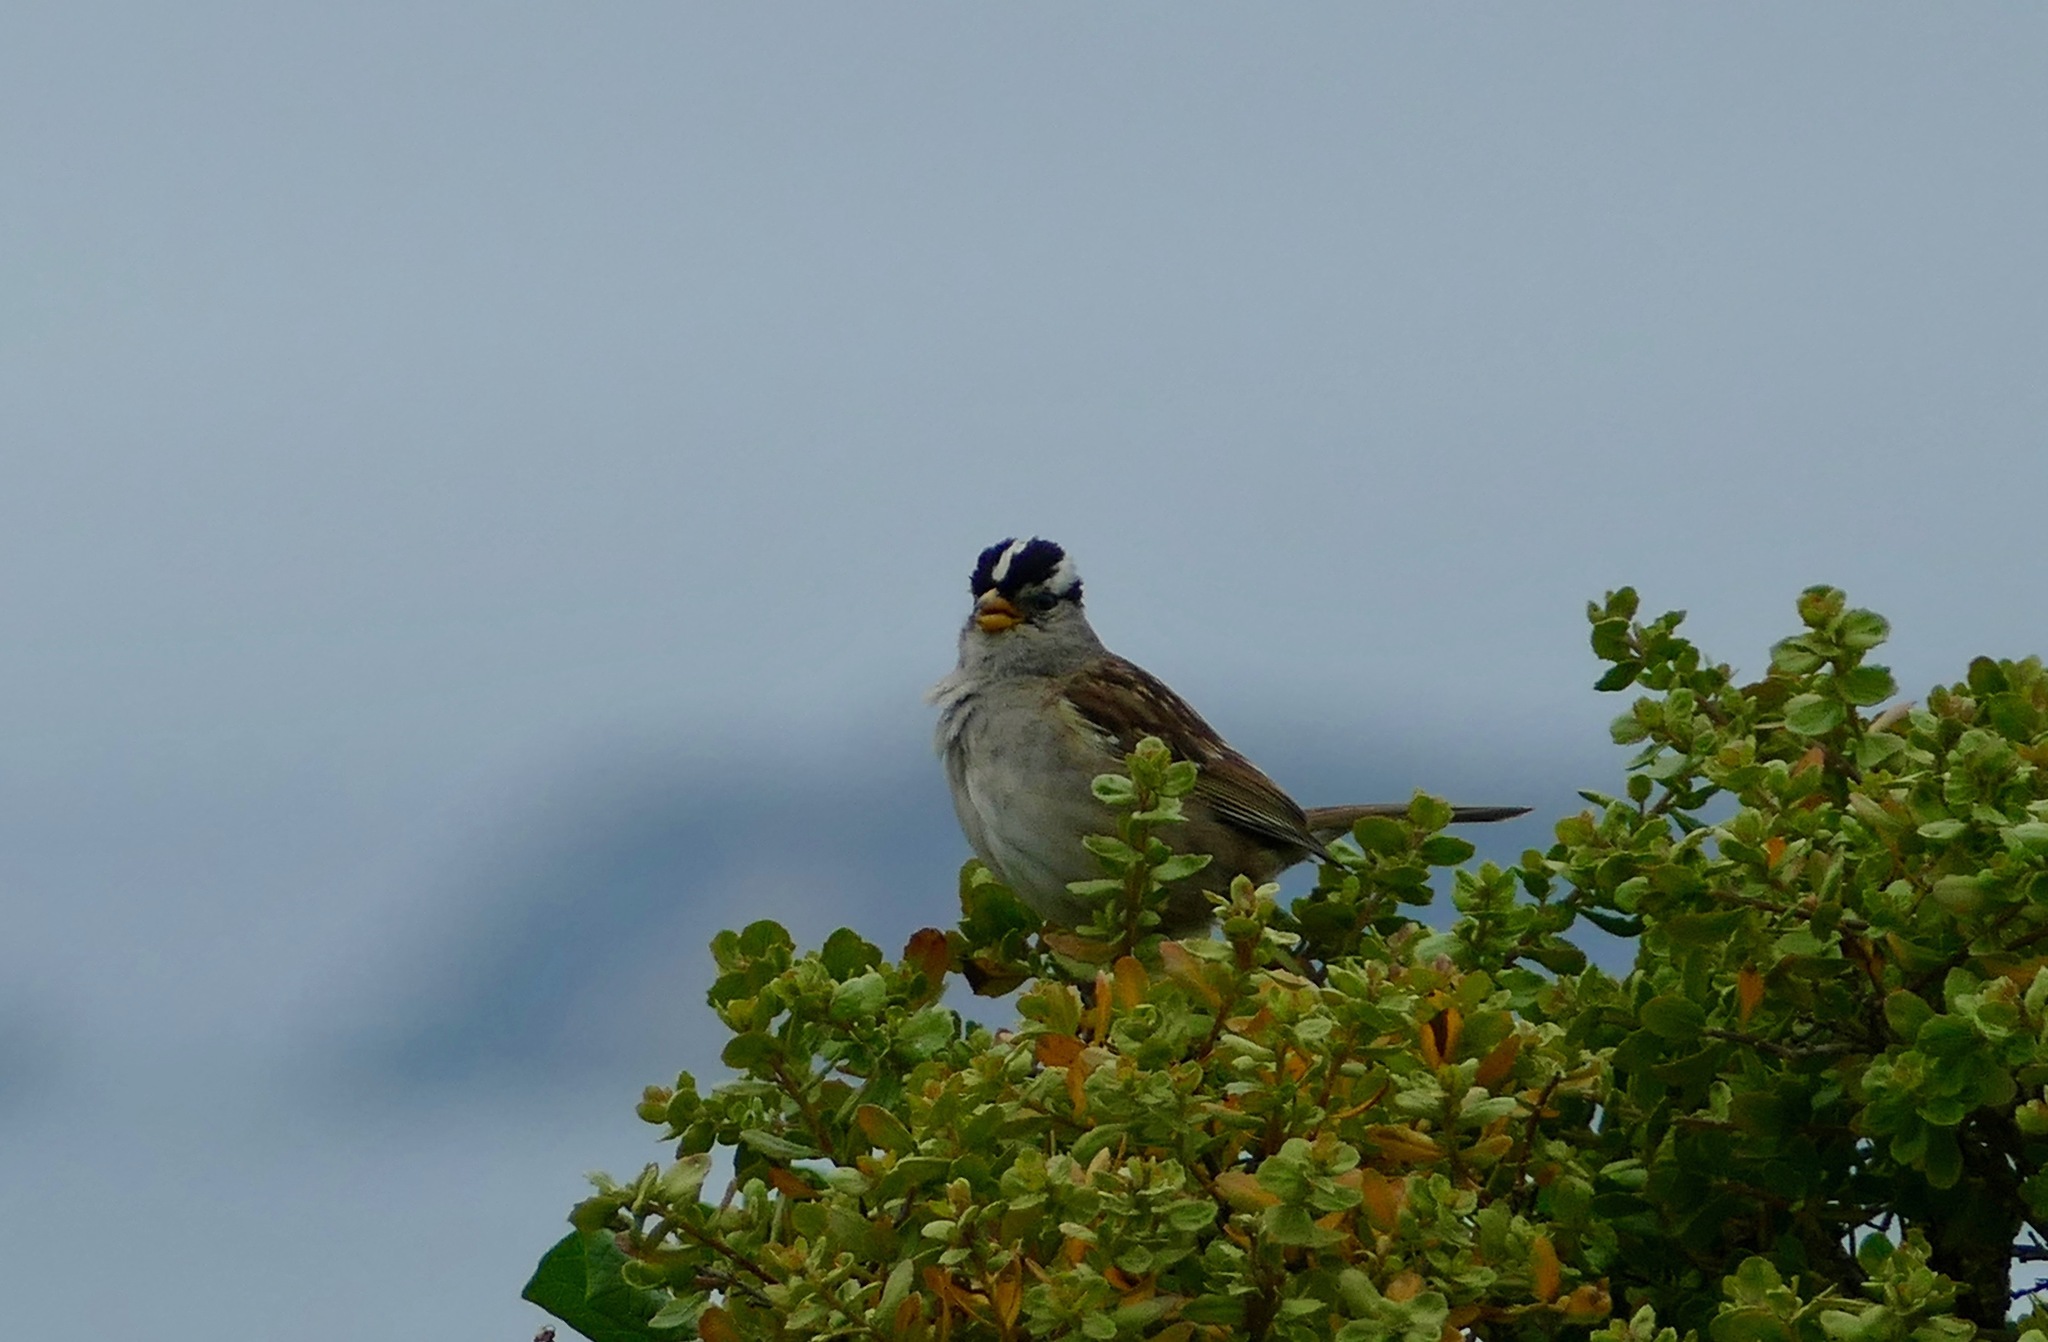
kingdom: Animalia
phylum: Chordata
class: Aves
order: Passeriformes
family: Passerellidae
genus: Zonotrichia
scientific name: Zonotrichia leucophrys
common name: White-crowned sparrow
